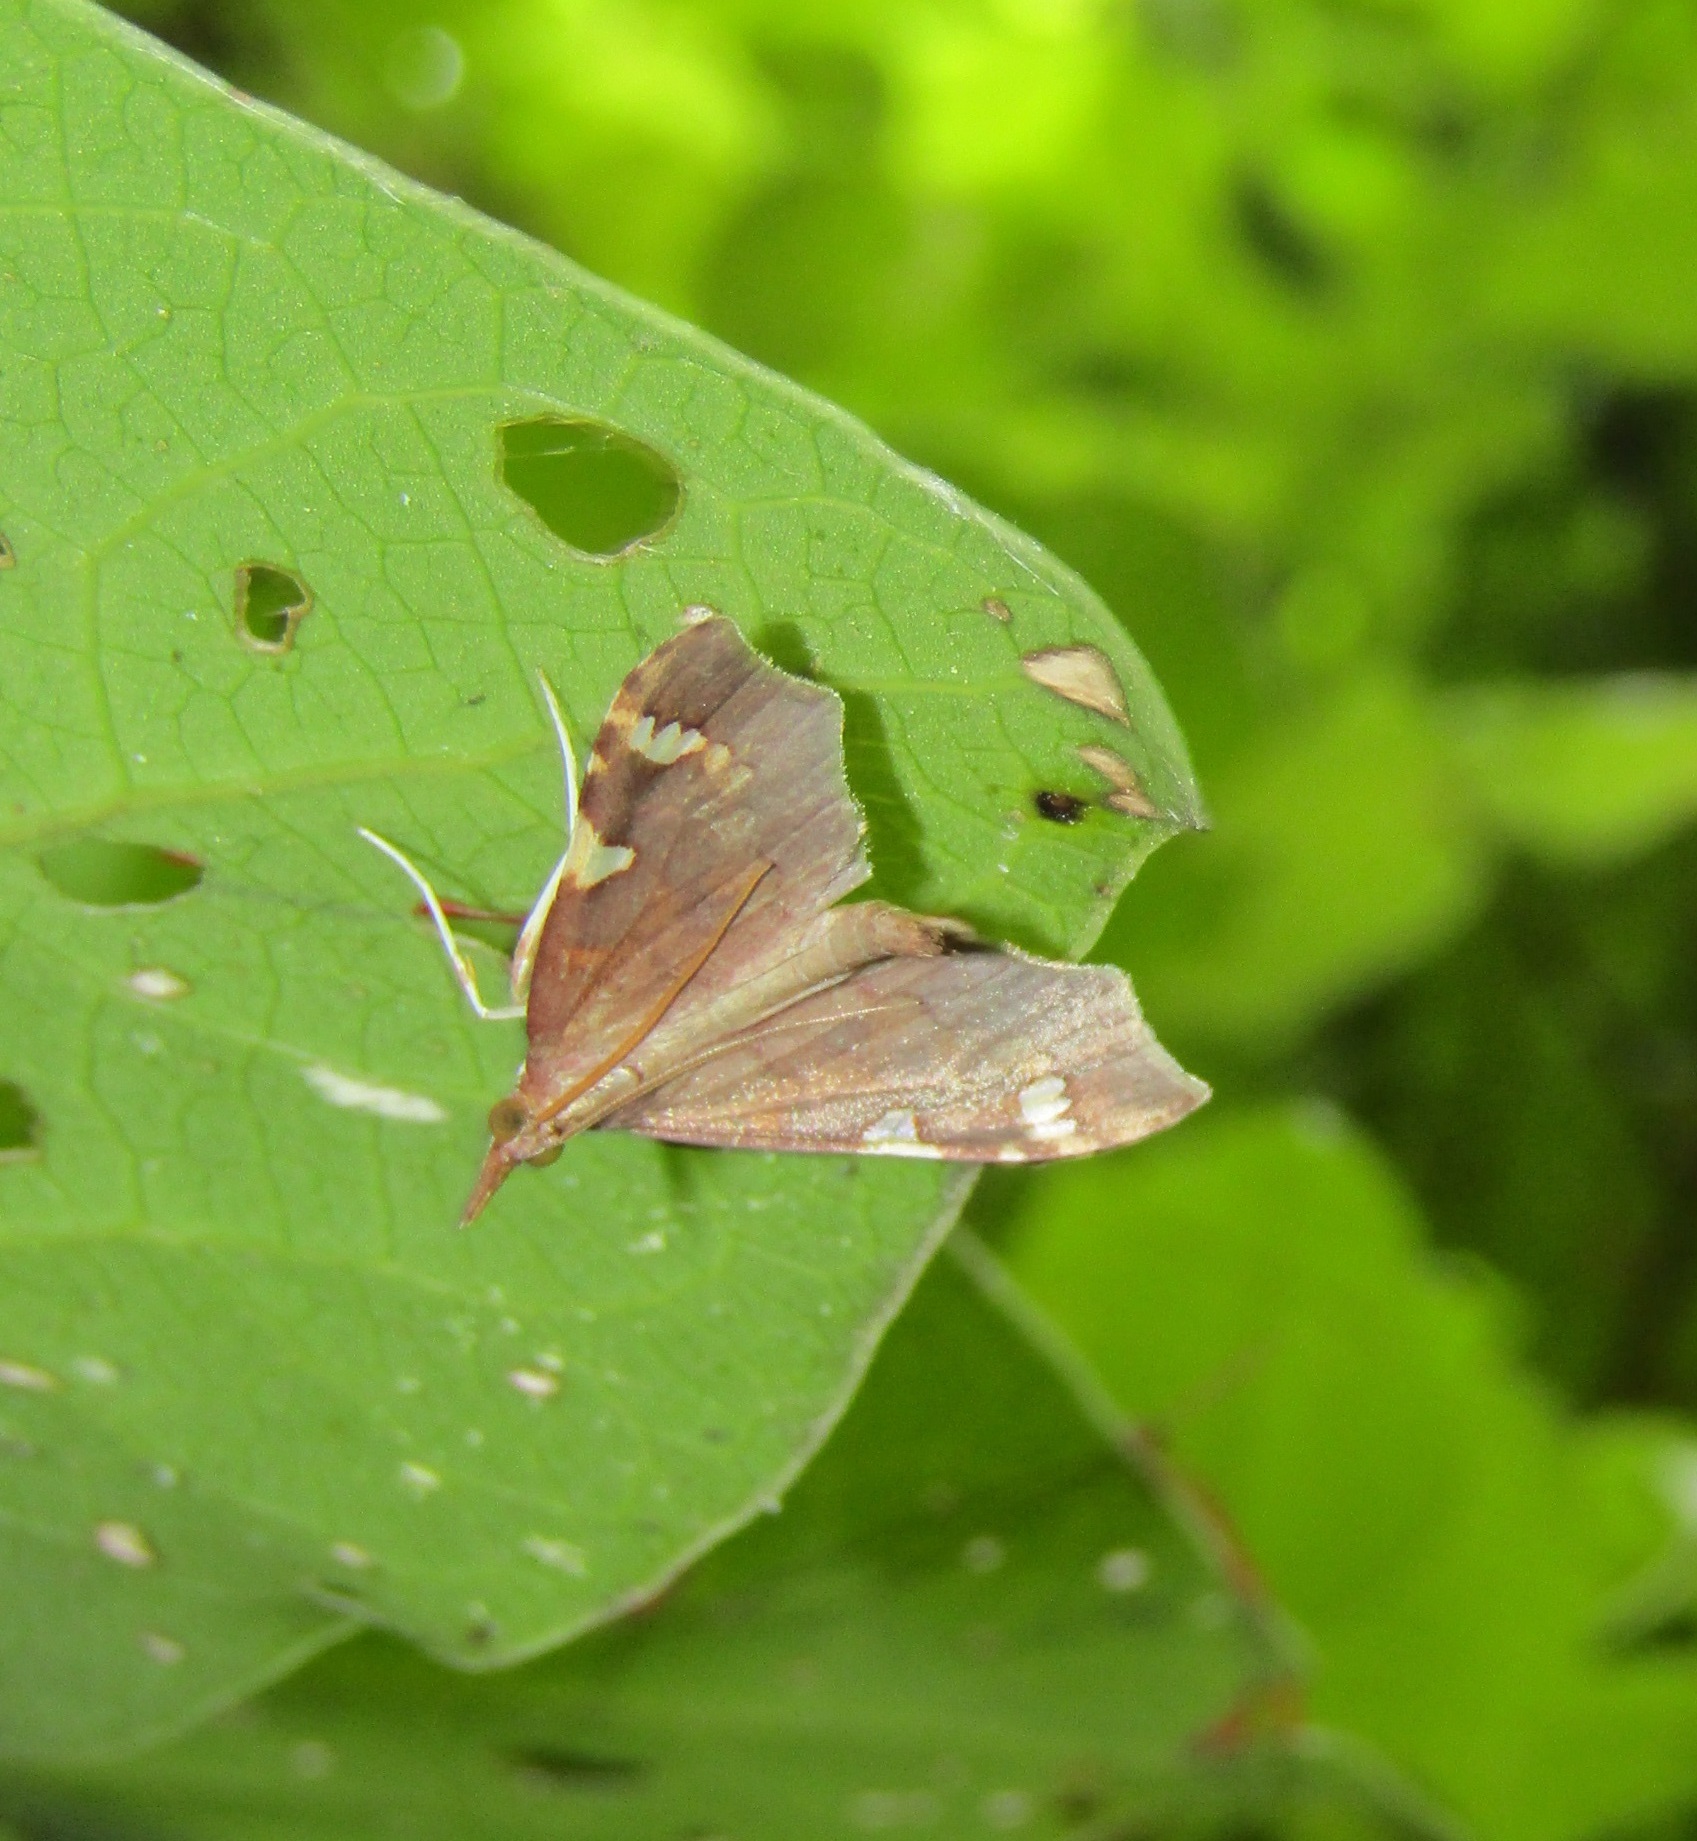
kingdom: Animalia
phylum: Arthropoda
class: Insecta
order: Lepidoptera
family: Crambidae
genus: Deana
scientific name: Deana hybreasalis
